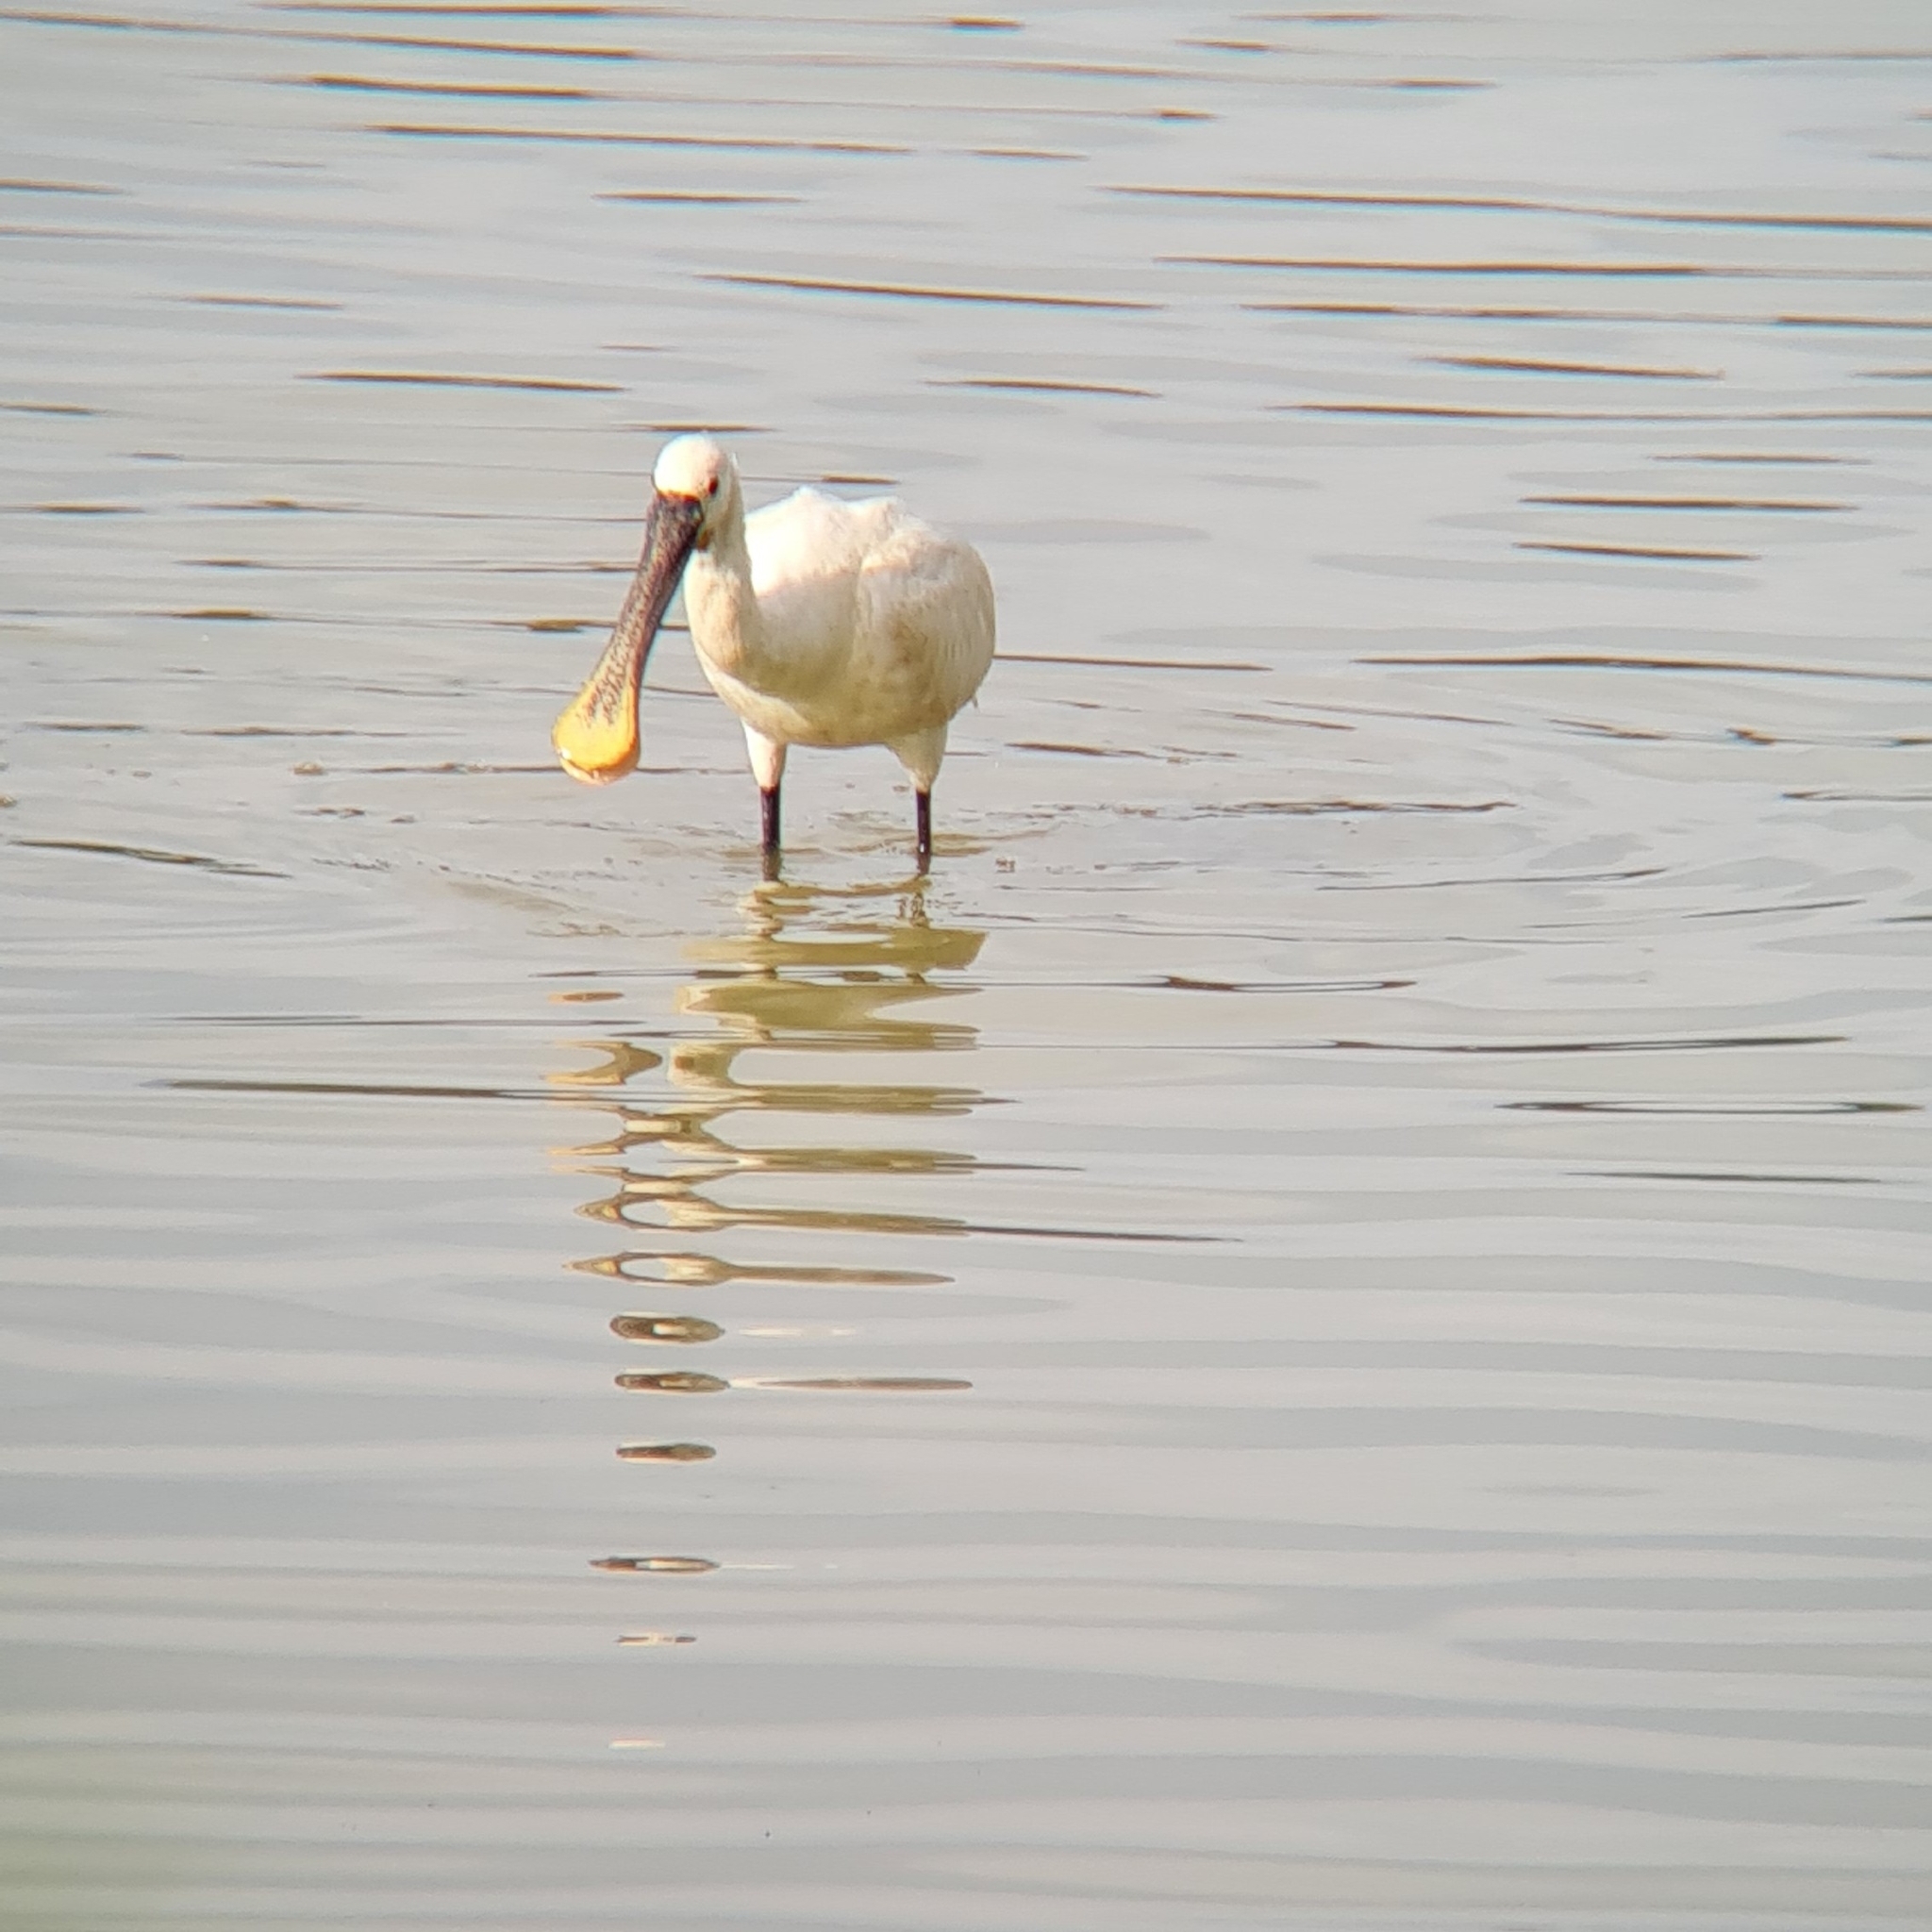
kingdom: Animalia
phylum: Chordata
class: Aves
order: Pelecaniformes
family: Threskiornithidae
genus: Platalea
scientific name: Platalea leucorodia
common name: Eurasian spoonbill
